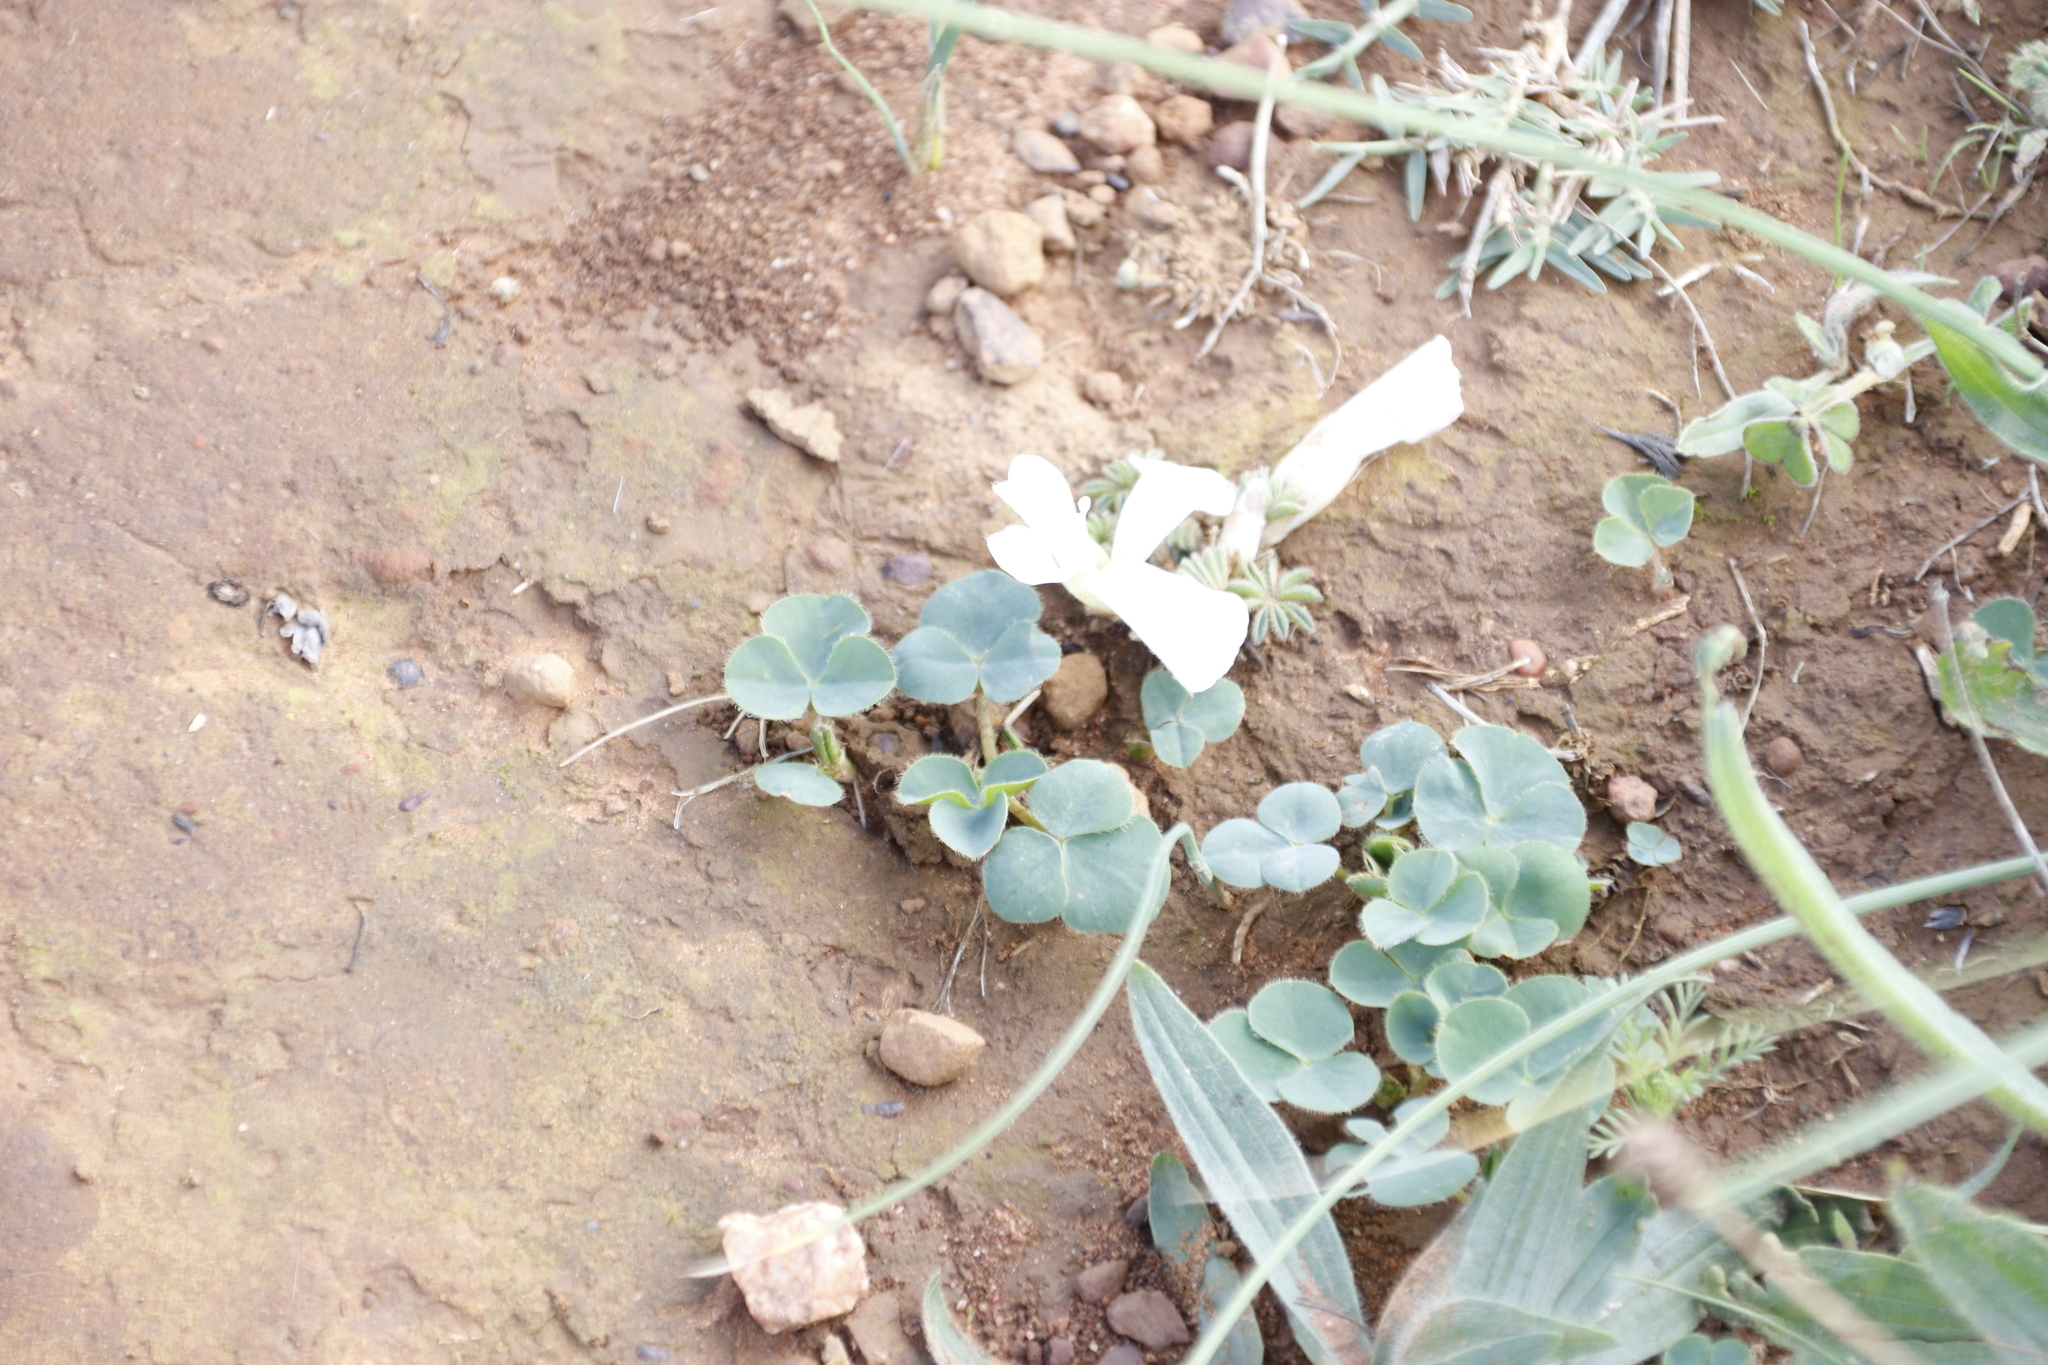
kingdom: Plantae
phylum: Tracheophyta
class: Magnoliopsida
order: Oxalidales
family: Oxalidaceae
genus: Oxalis
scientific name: Oxalis tomentosa
